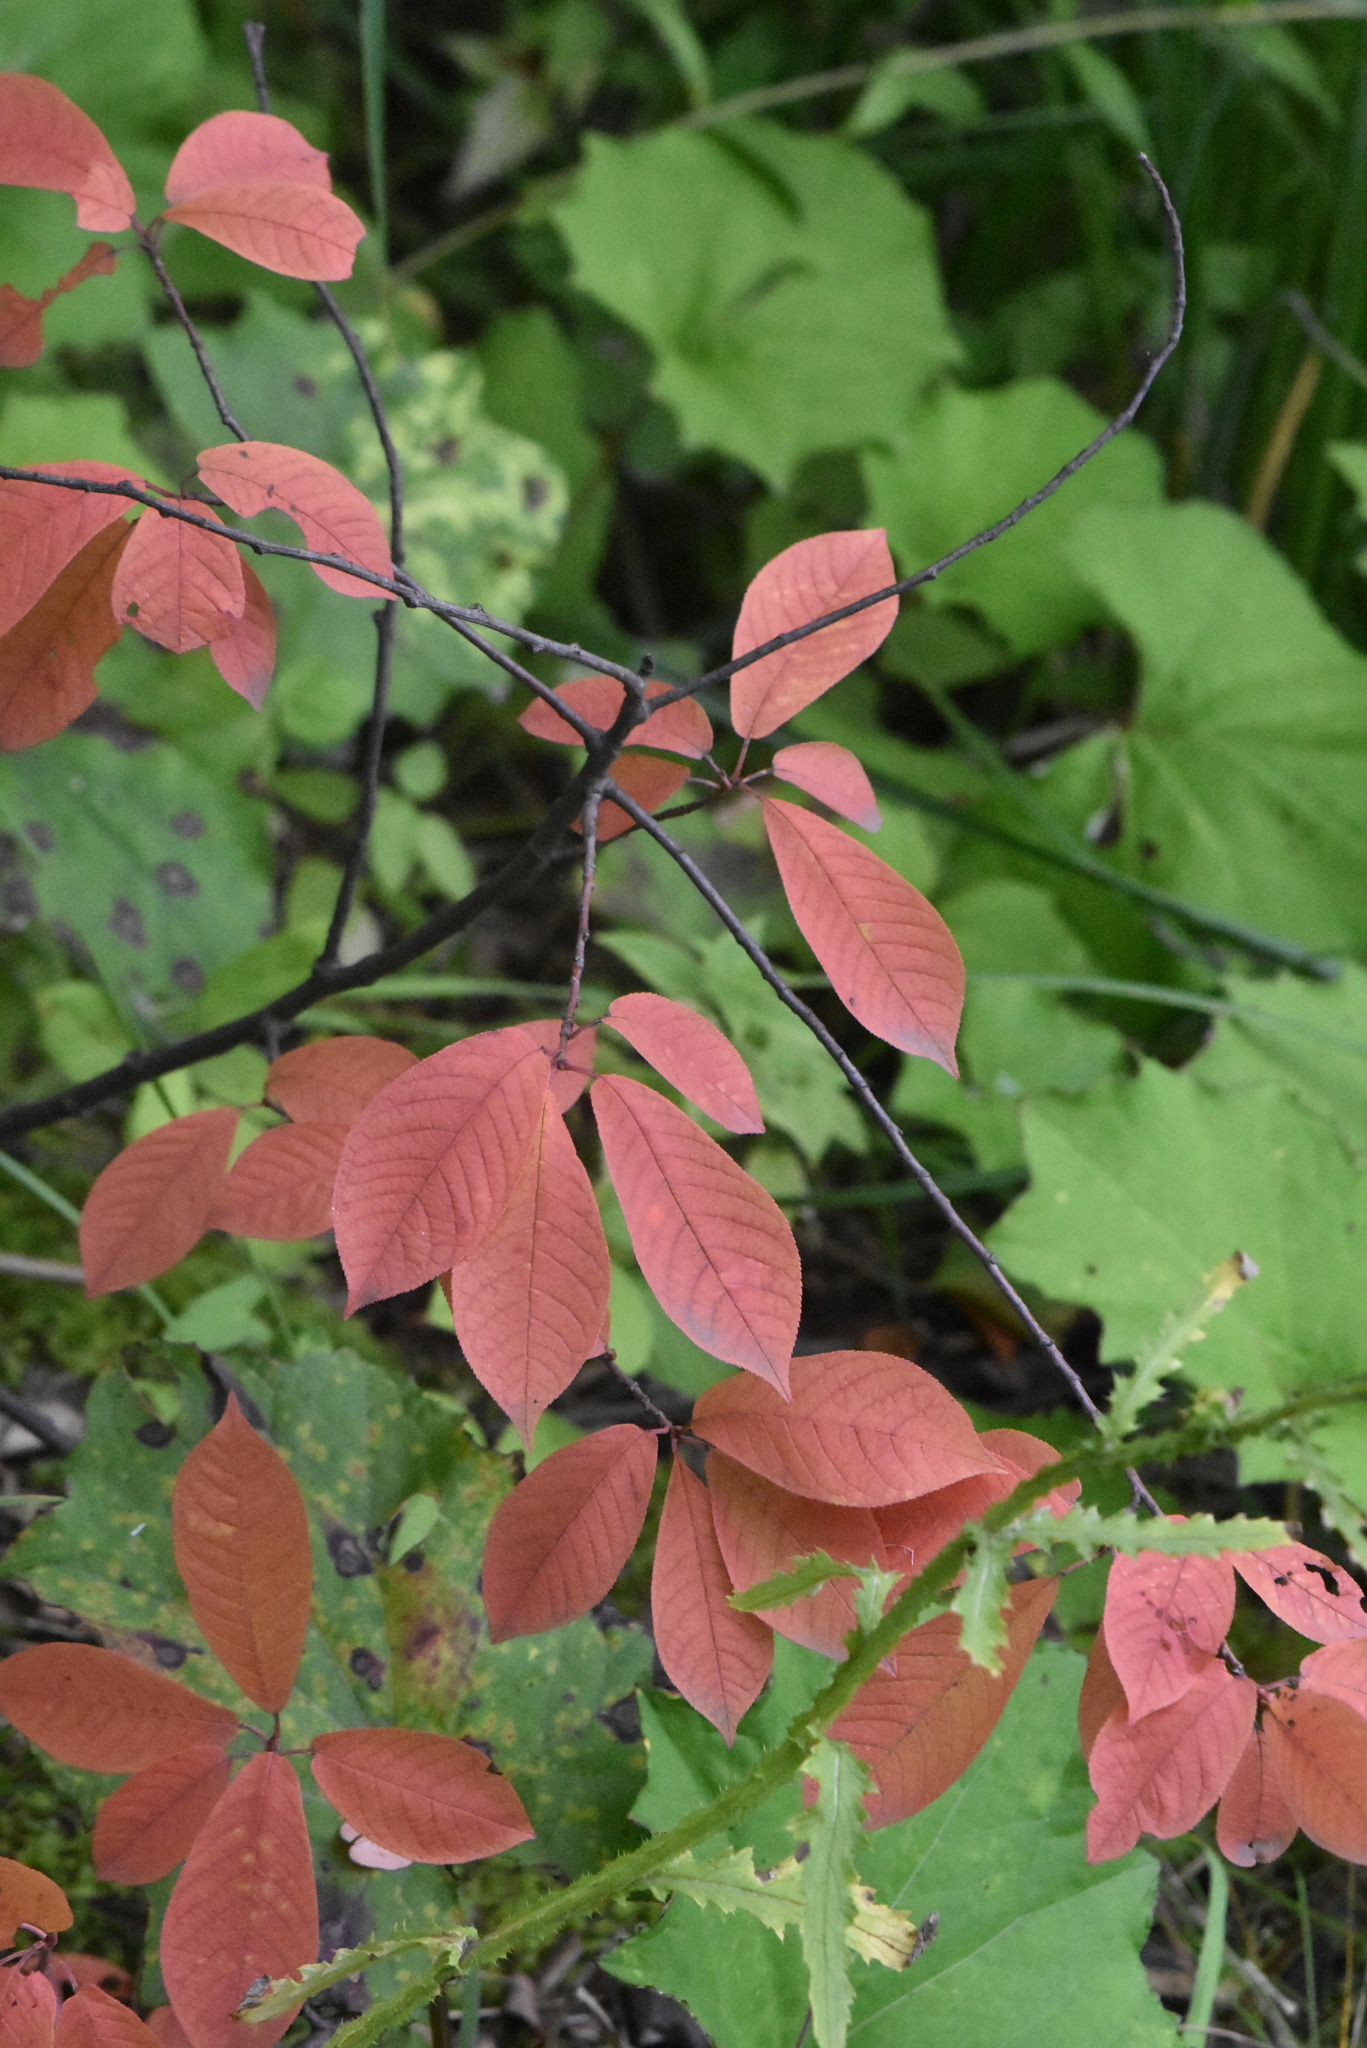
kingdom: Plantae
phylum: Tracheophyta
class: Magnoliopsida
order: Rosales
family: Rosaceae
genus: Prunus
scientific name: Prunus padus
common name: Bird cherry
